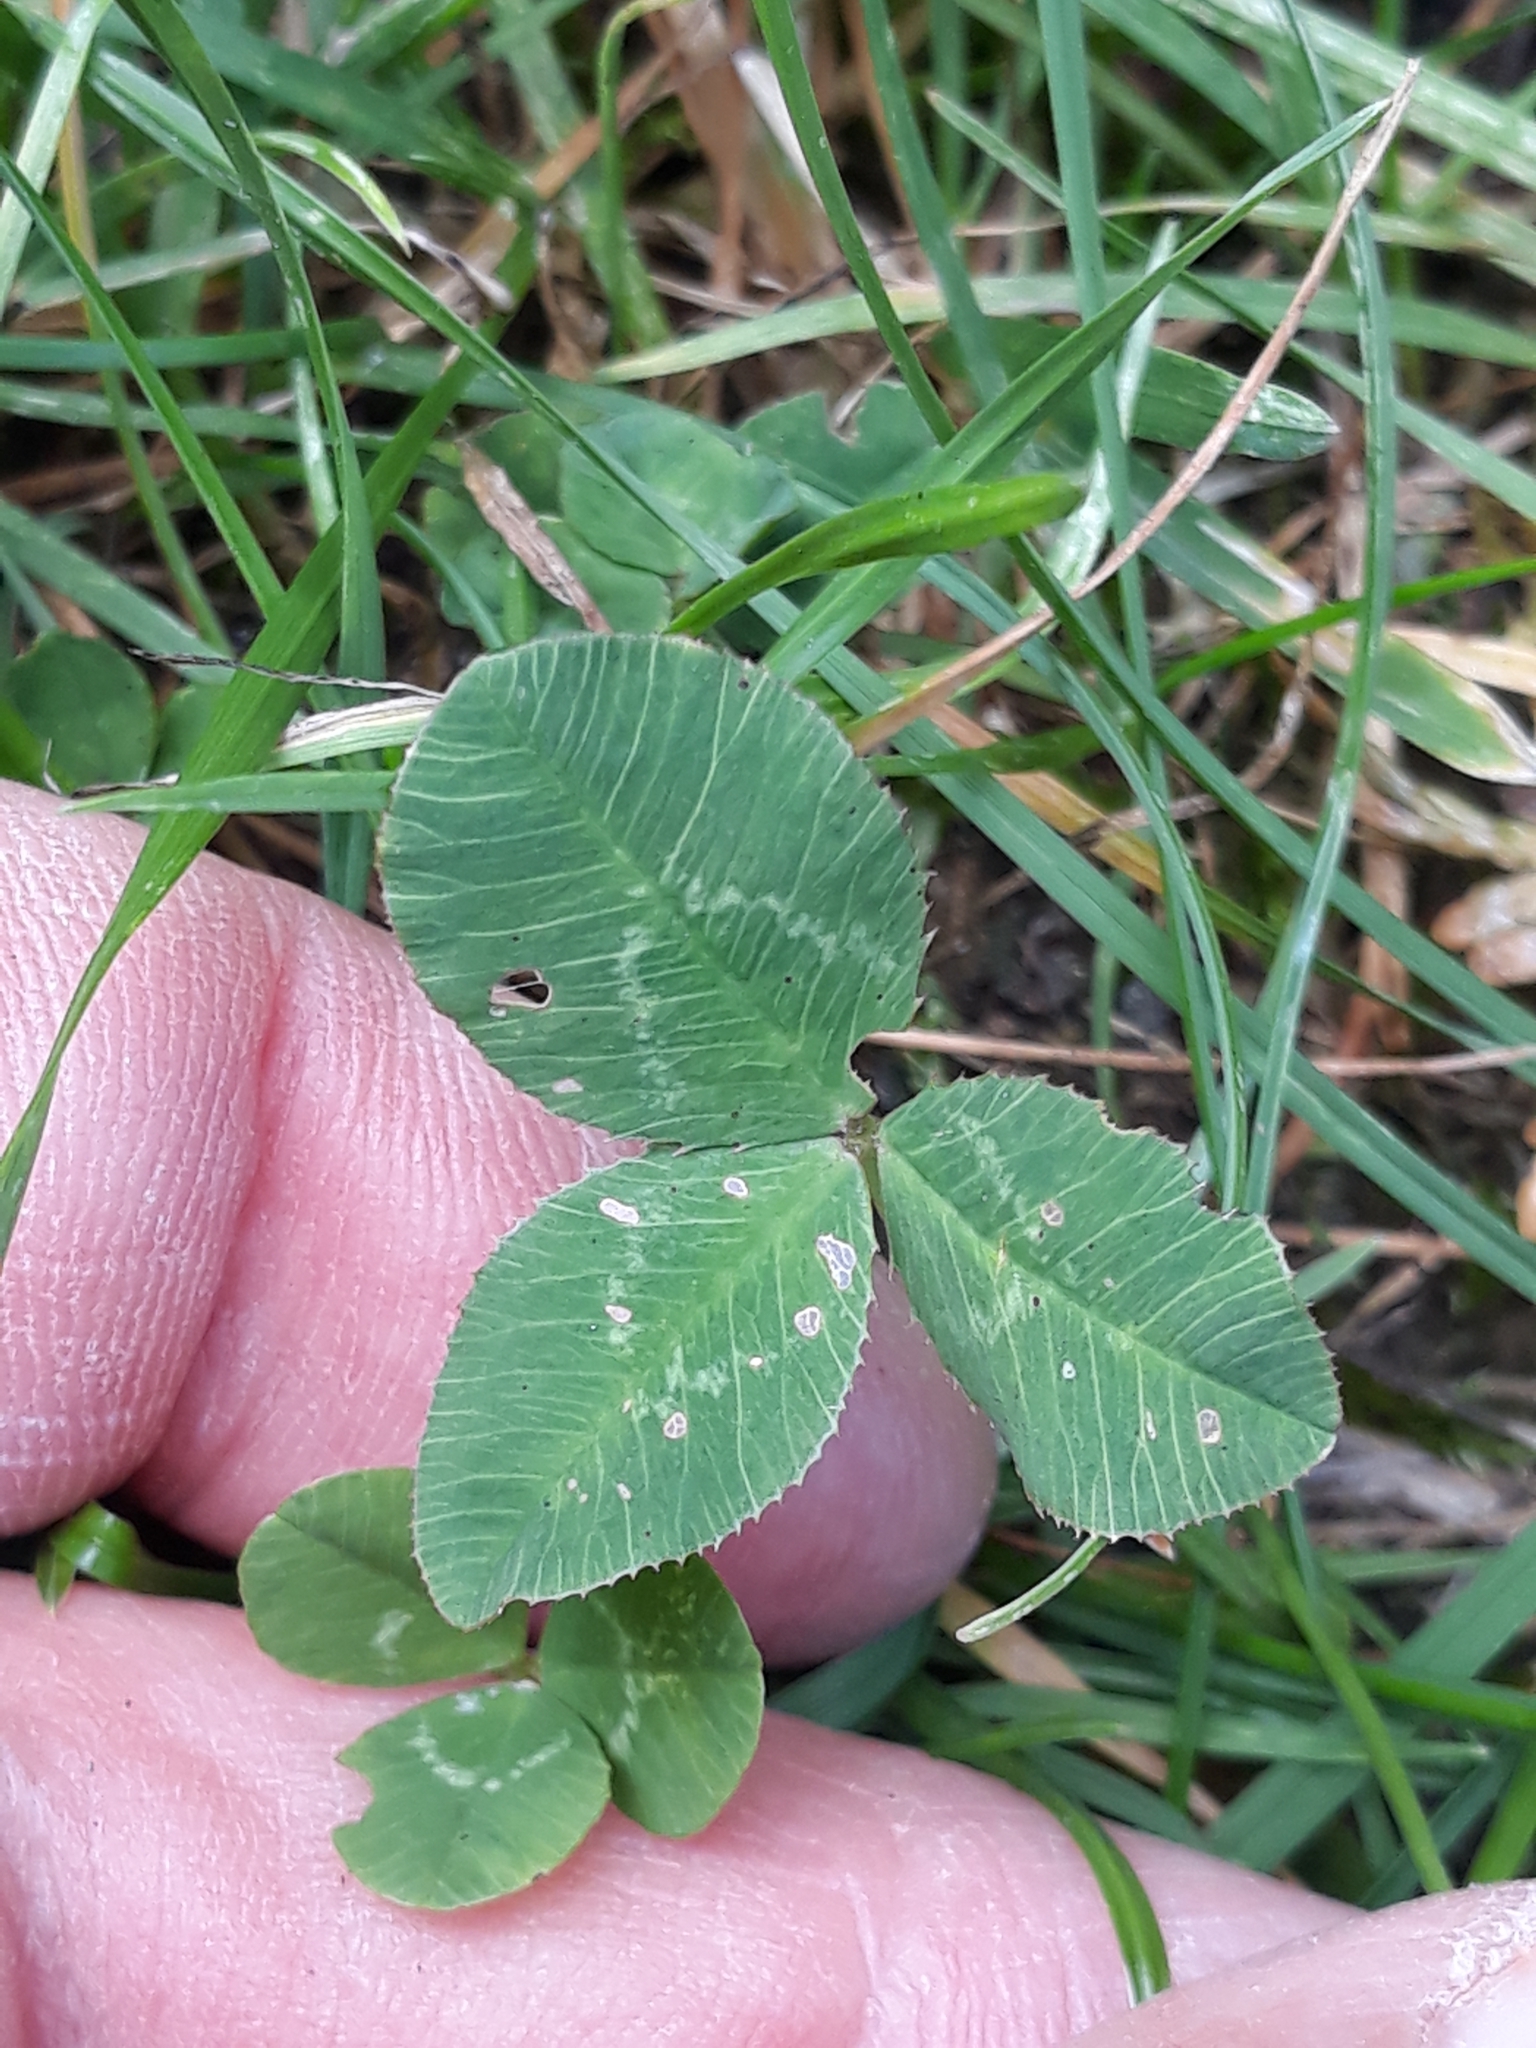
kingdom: Plantae
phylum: Tracheophyta
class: Magnoliopsida
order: Fabales
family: Fabaceae
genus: Trifolium
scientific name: Trifolium repens
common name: White clover
